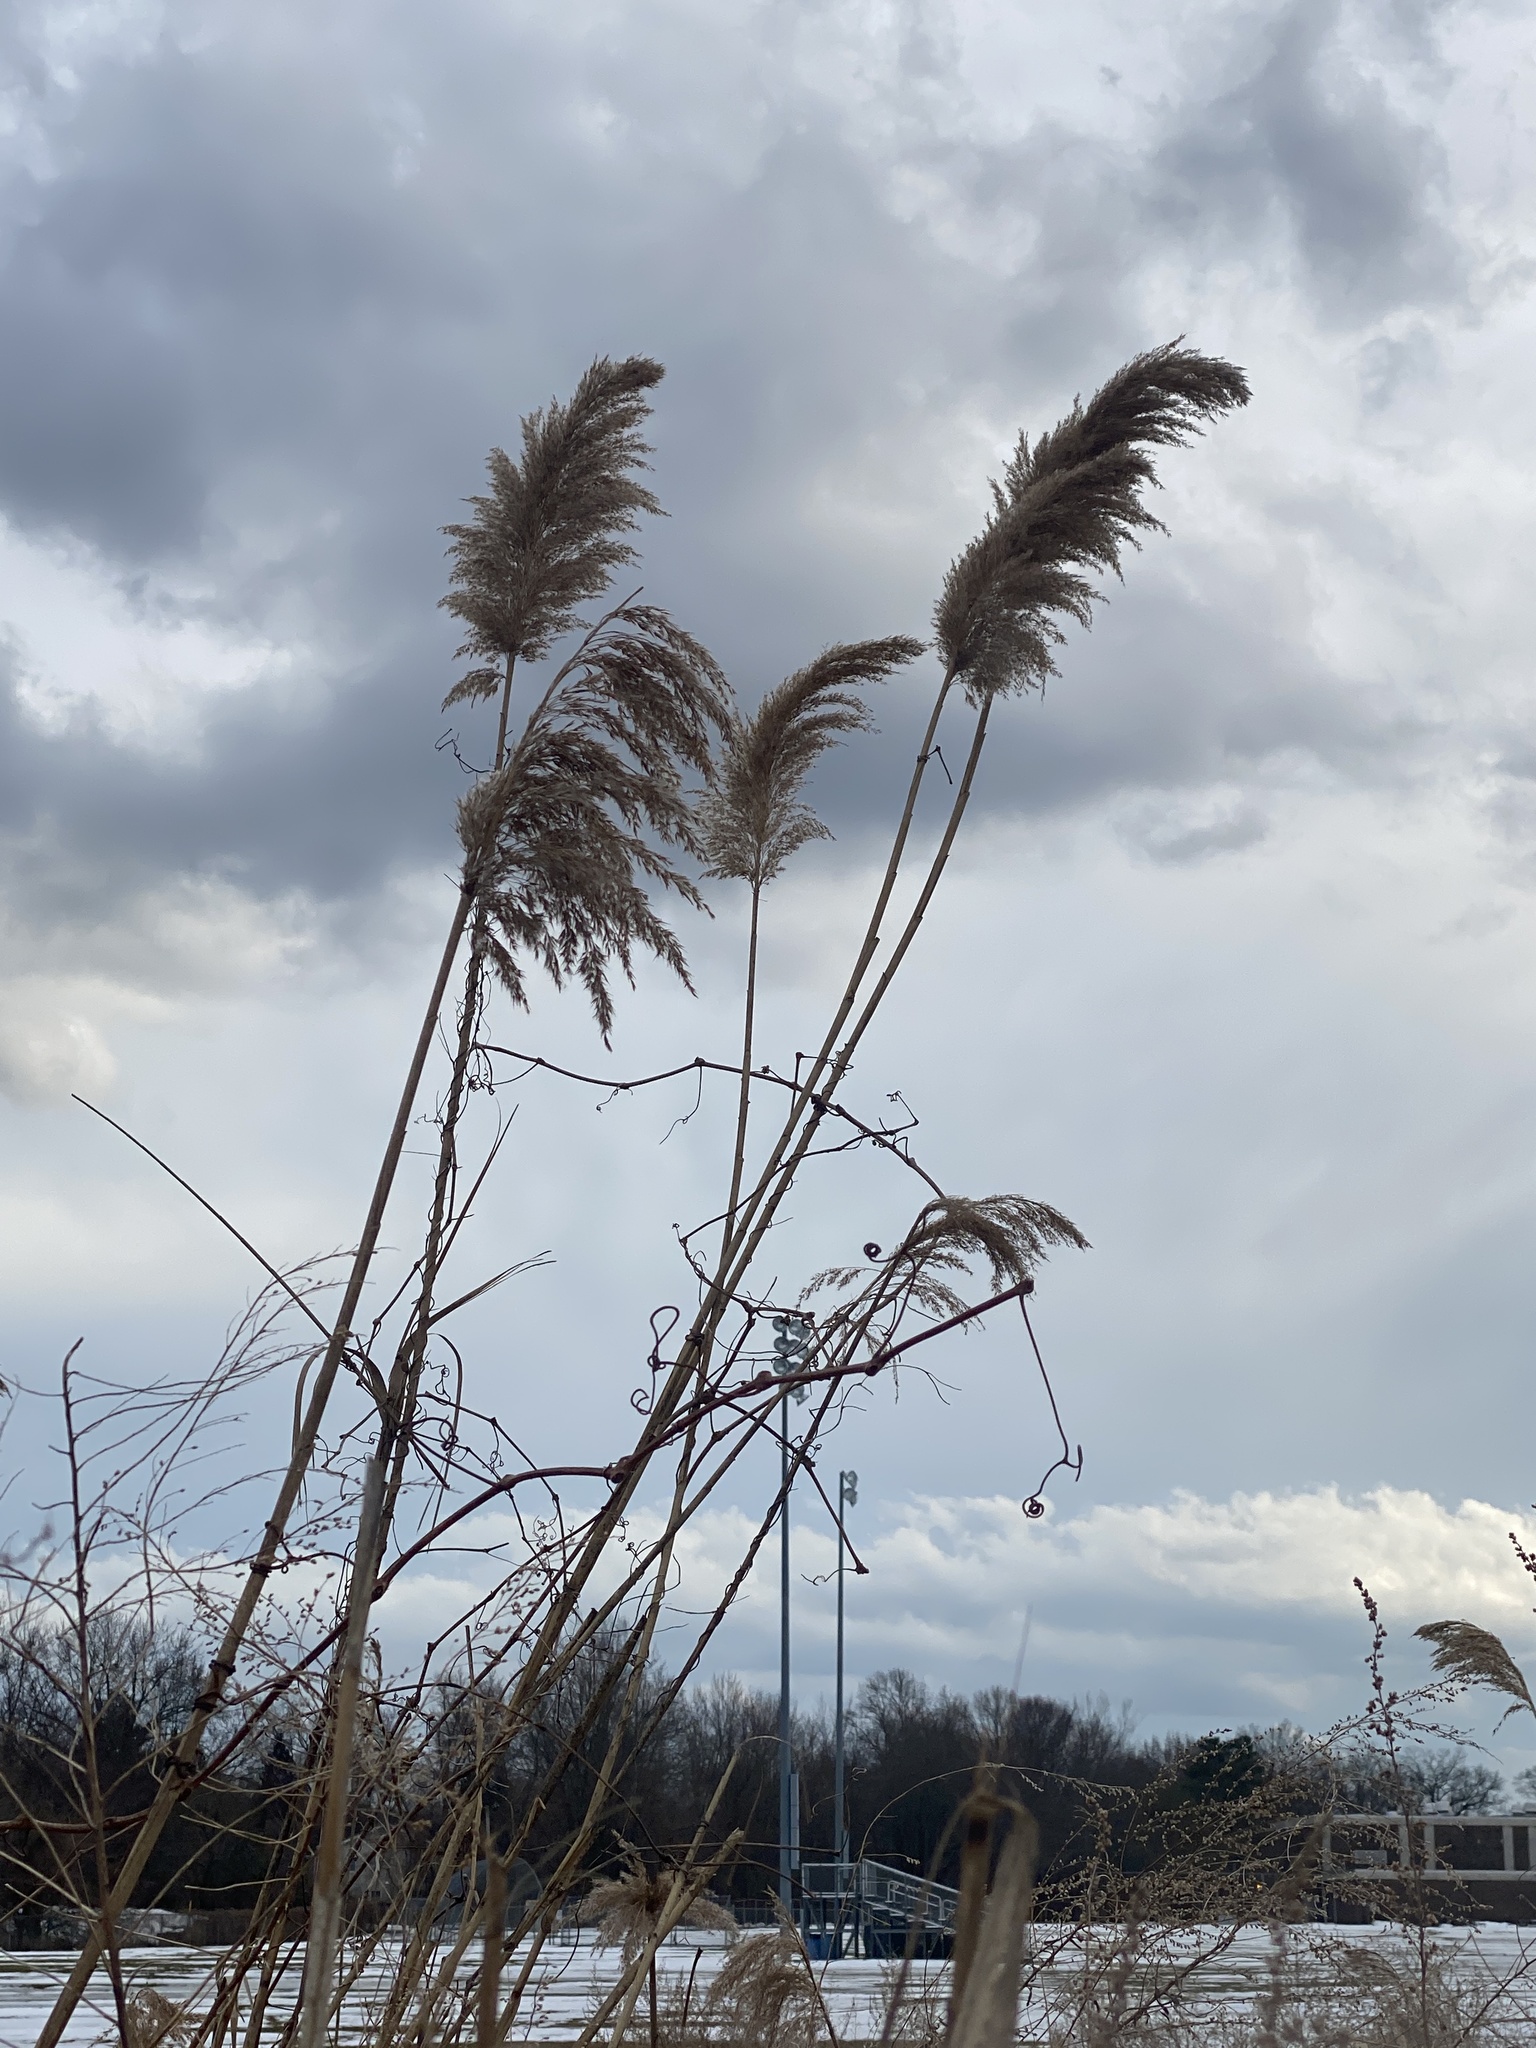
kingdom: Plantae
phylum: Tracheophyta
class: Liliopsida
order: Poales
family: Poaceae
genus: Phragmites
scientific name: Phragmites australis
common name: Common reed
